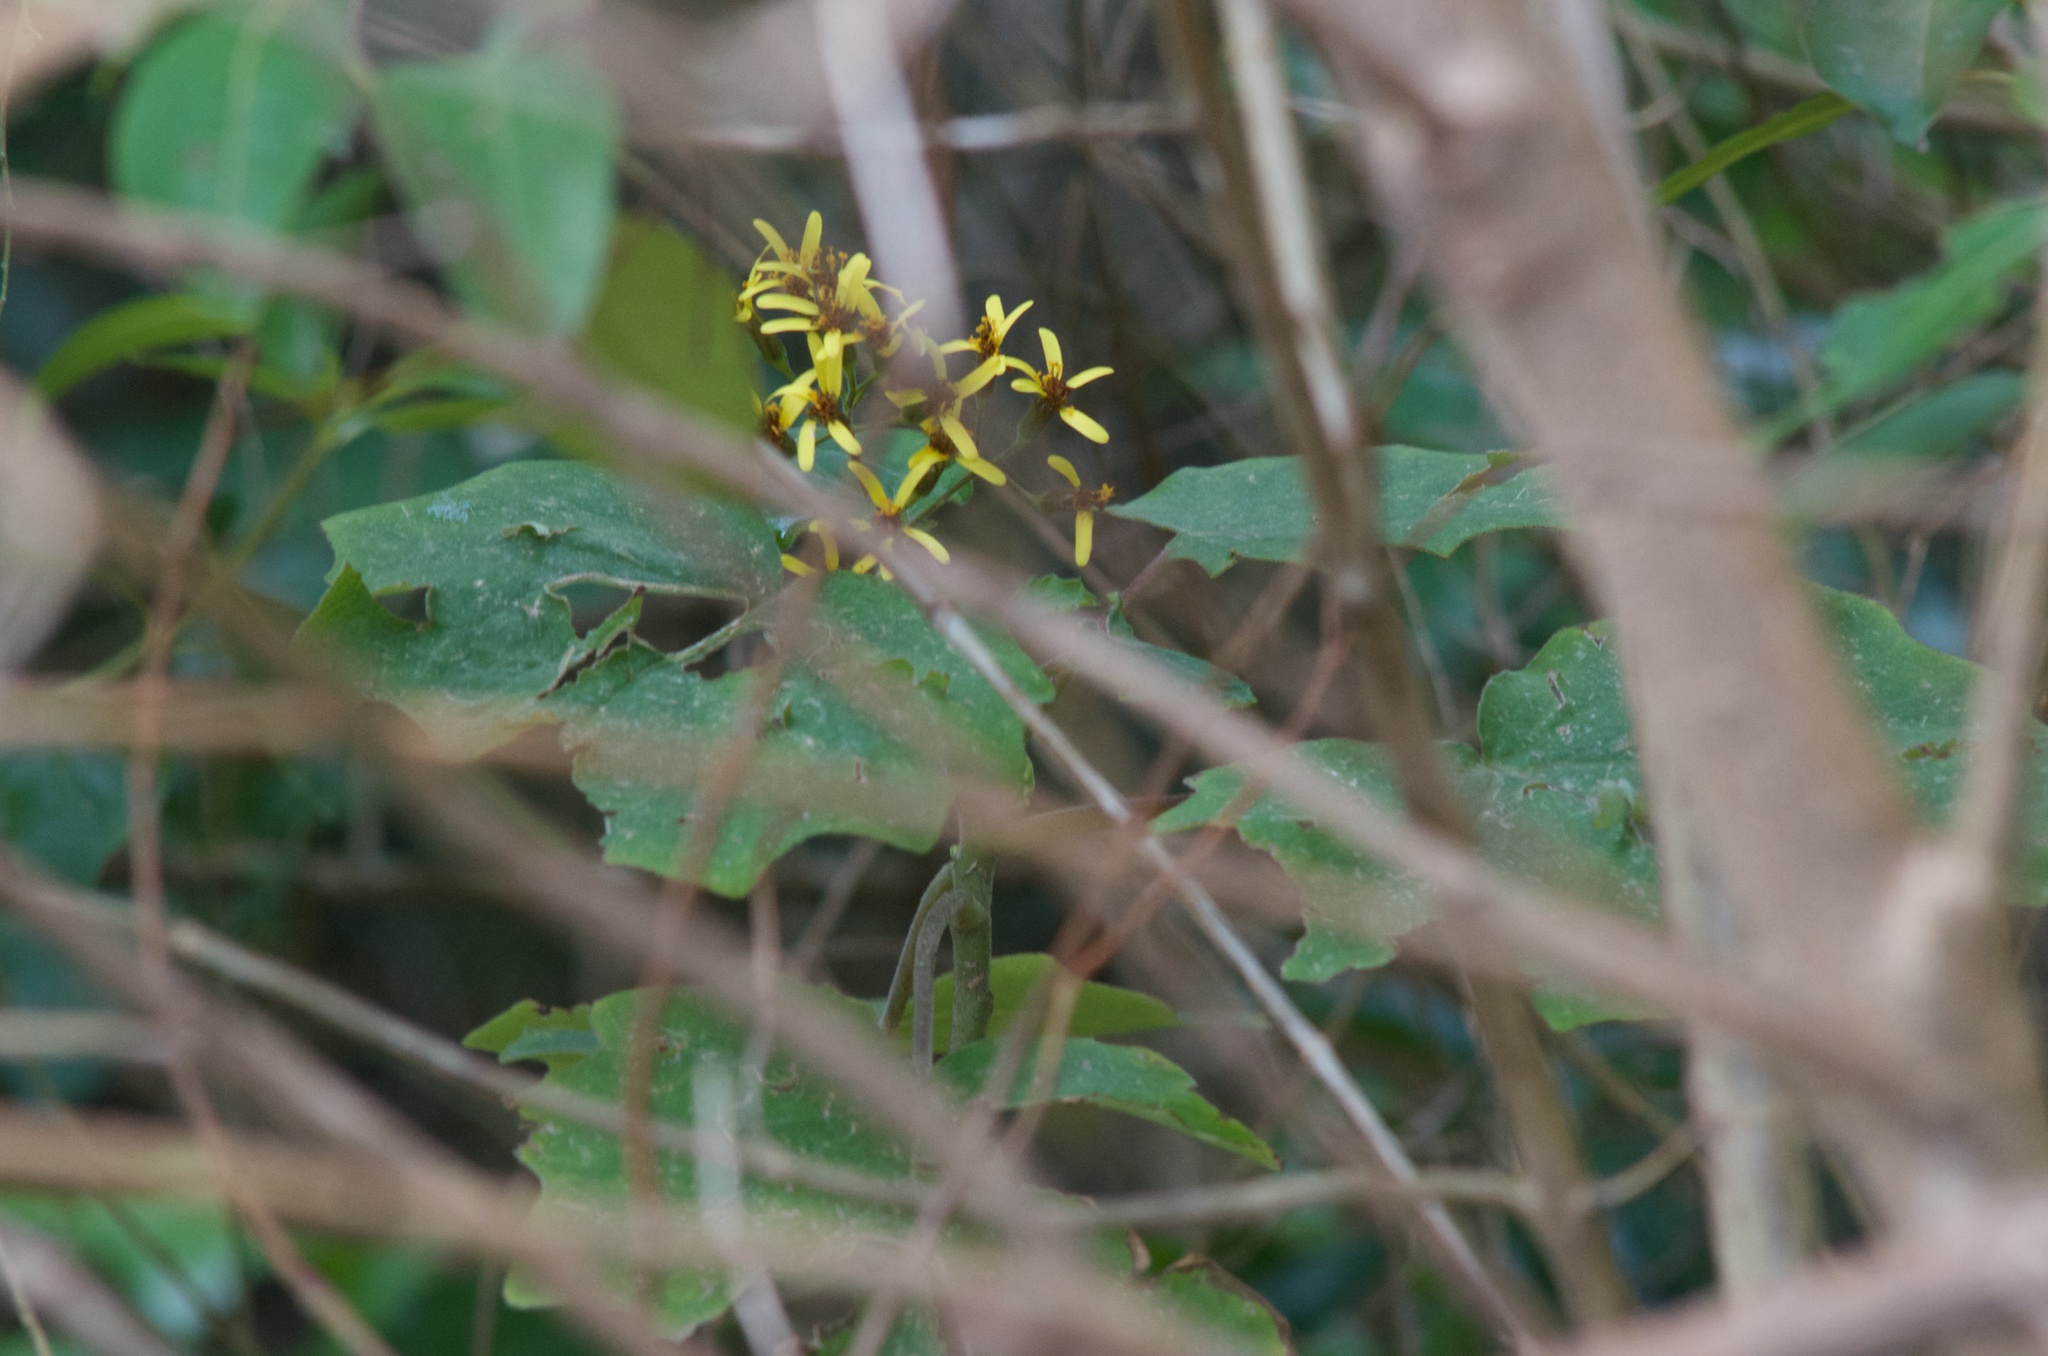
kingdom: Plantae
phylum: Tracheophyta
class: Magnoliopsida
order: Asterales
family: Asteraceae
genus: Roldana
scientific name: Roldana petasitis
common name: California-geranium
